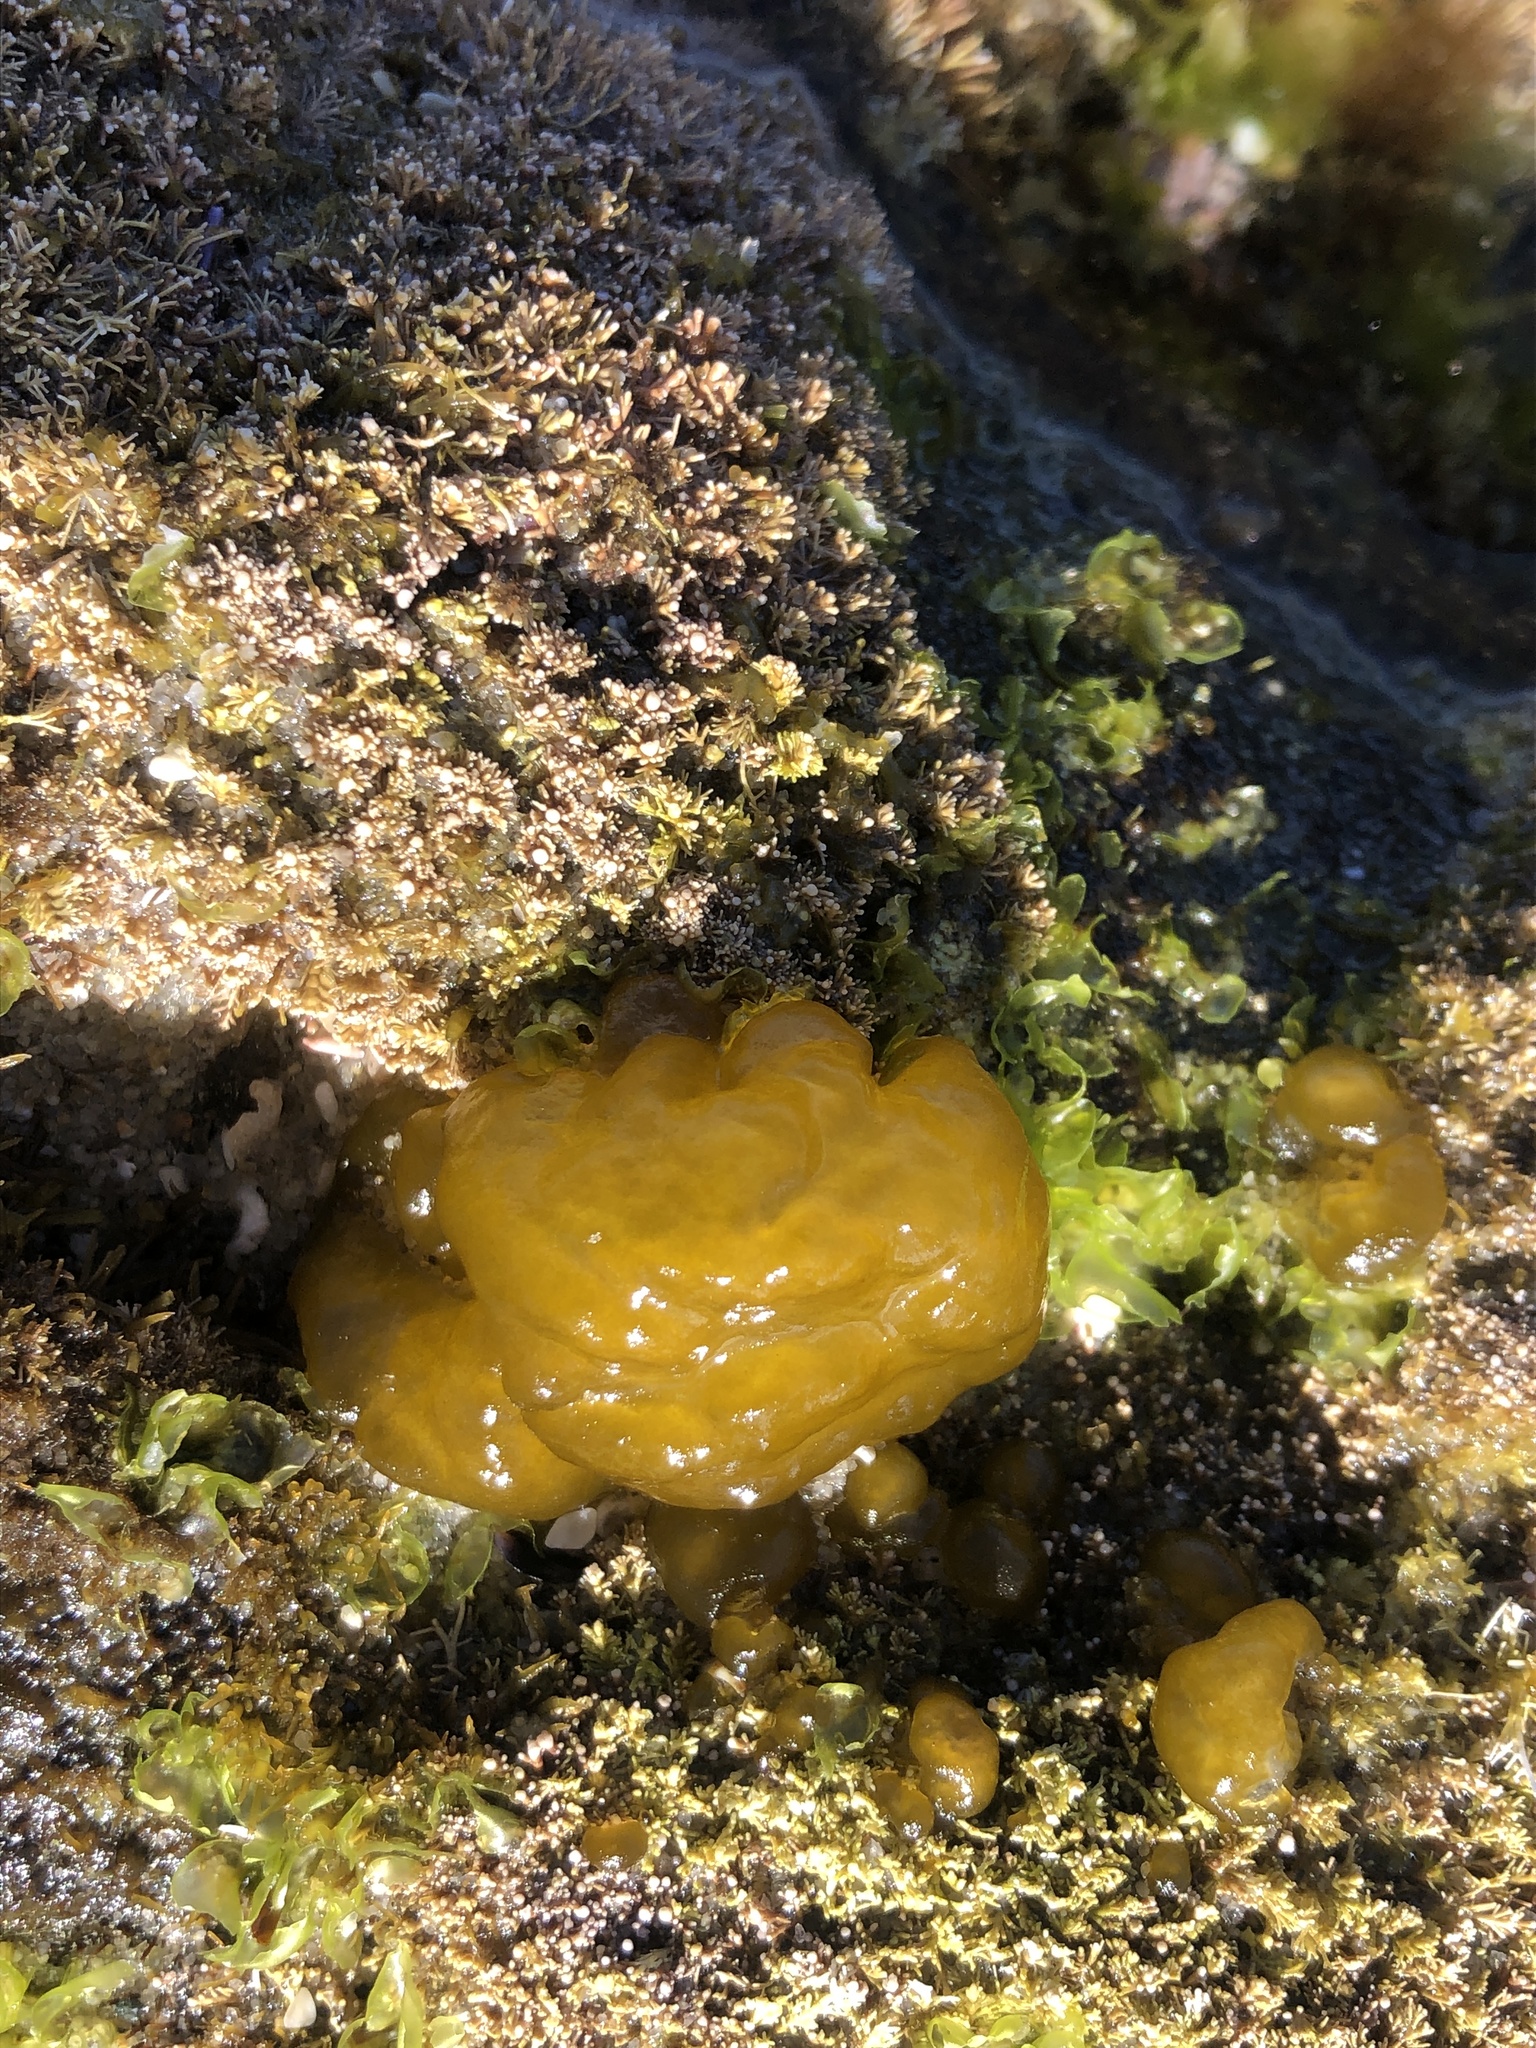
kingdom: Chromista
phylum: Ochrophyta
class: Phaeophyceae
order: Ectocarpales
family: Chordariaceae
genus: Leathesia
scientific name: Leathesia marina
